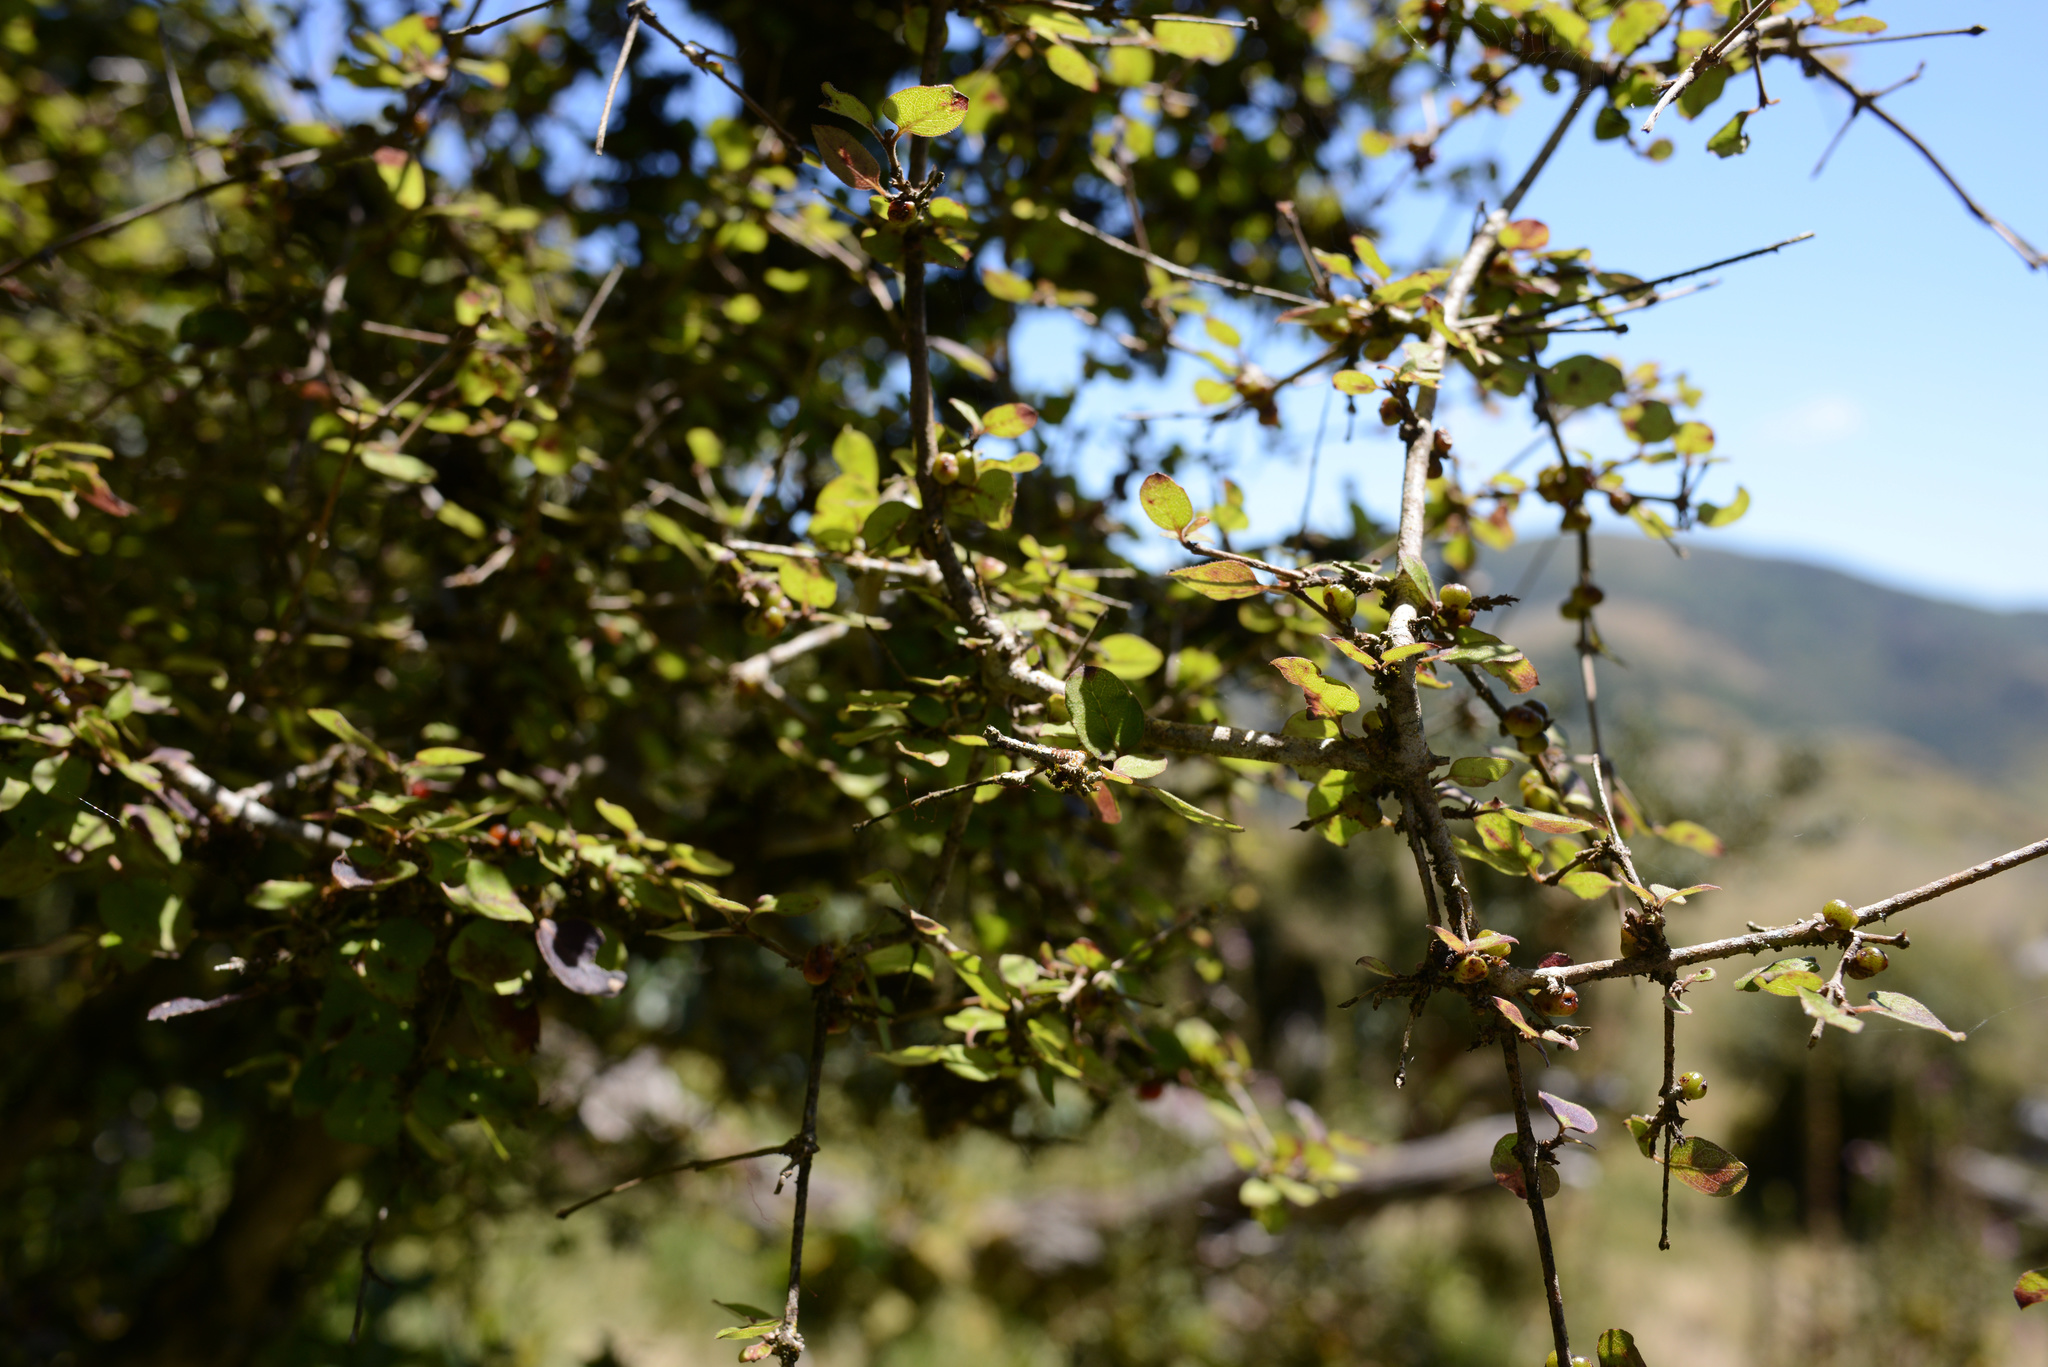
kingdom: Plantae
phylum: Tracheophyta
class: Magnoliopsida
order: Gentianales
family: Rubiaceae
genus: Coprosma
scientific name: Coprosma rotundifolia
